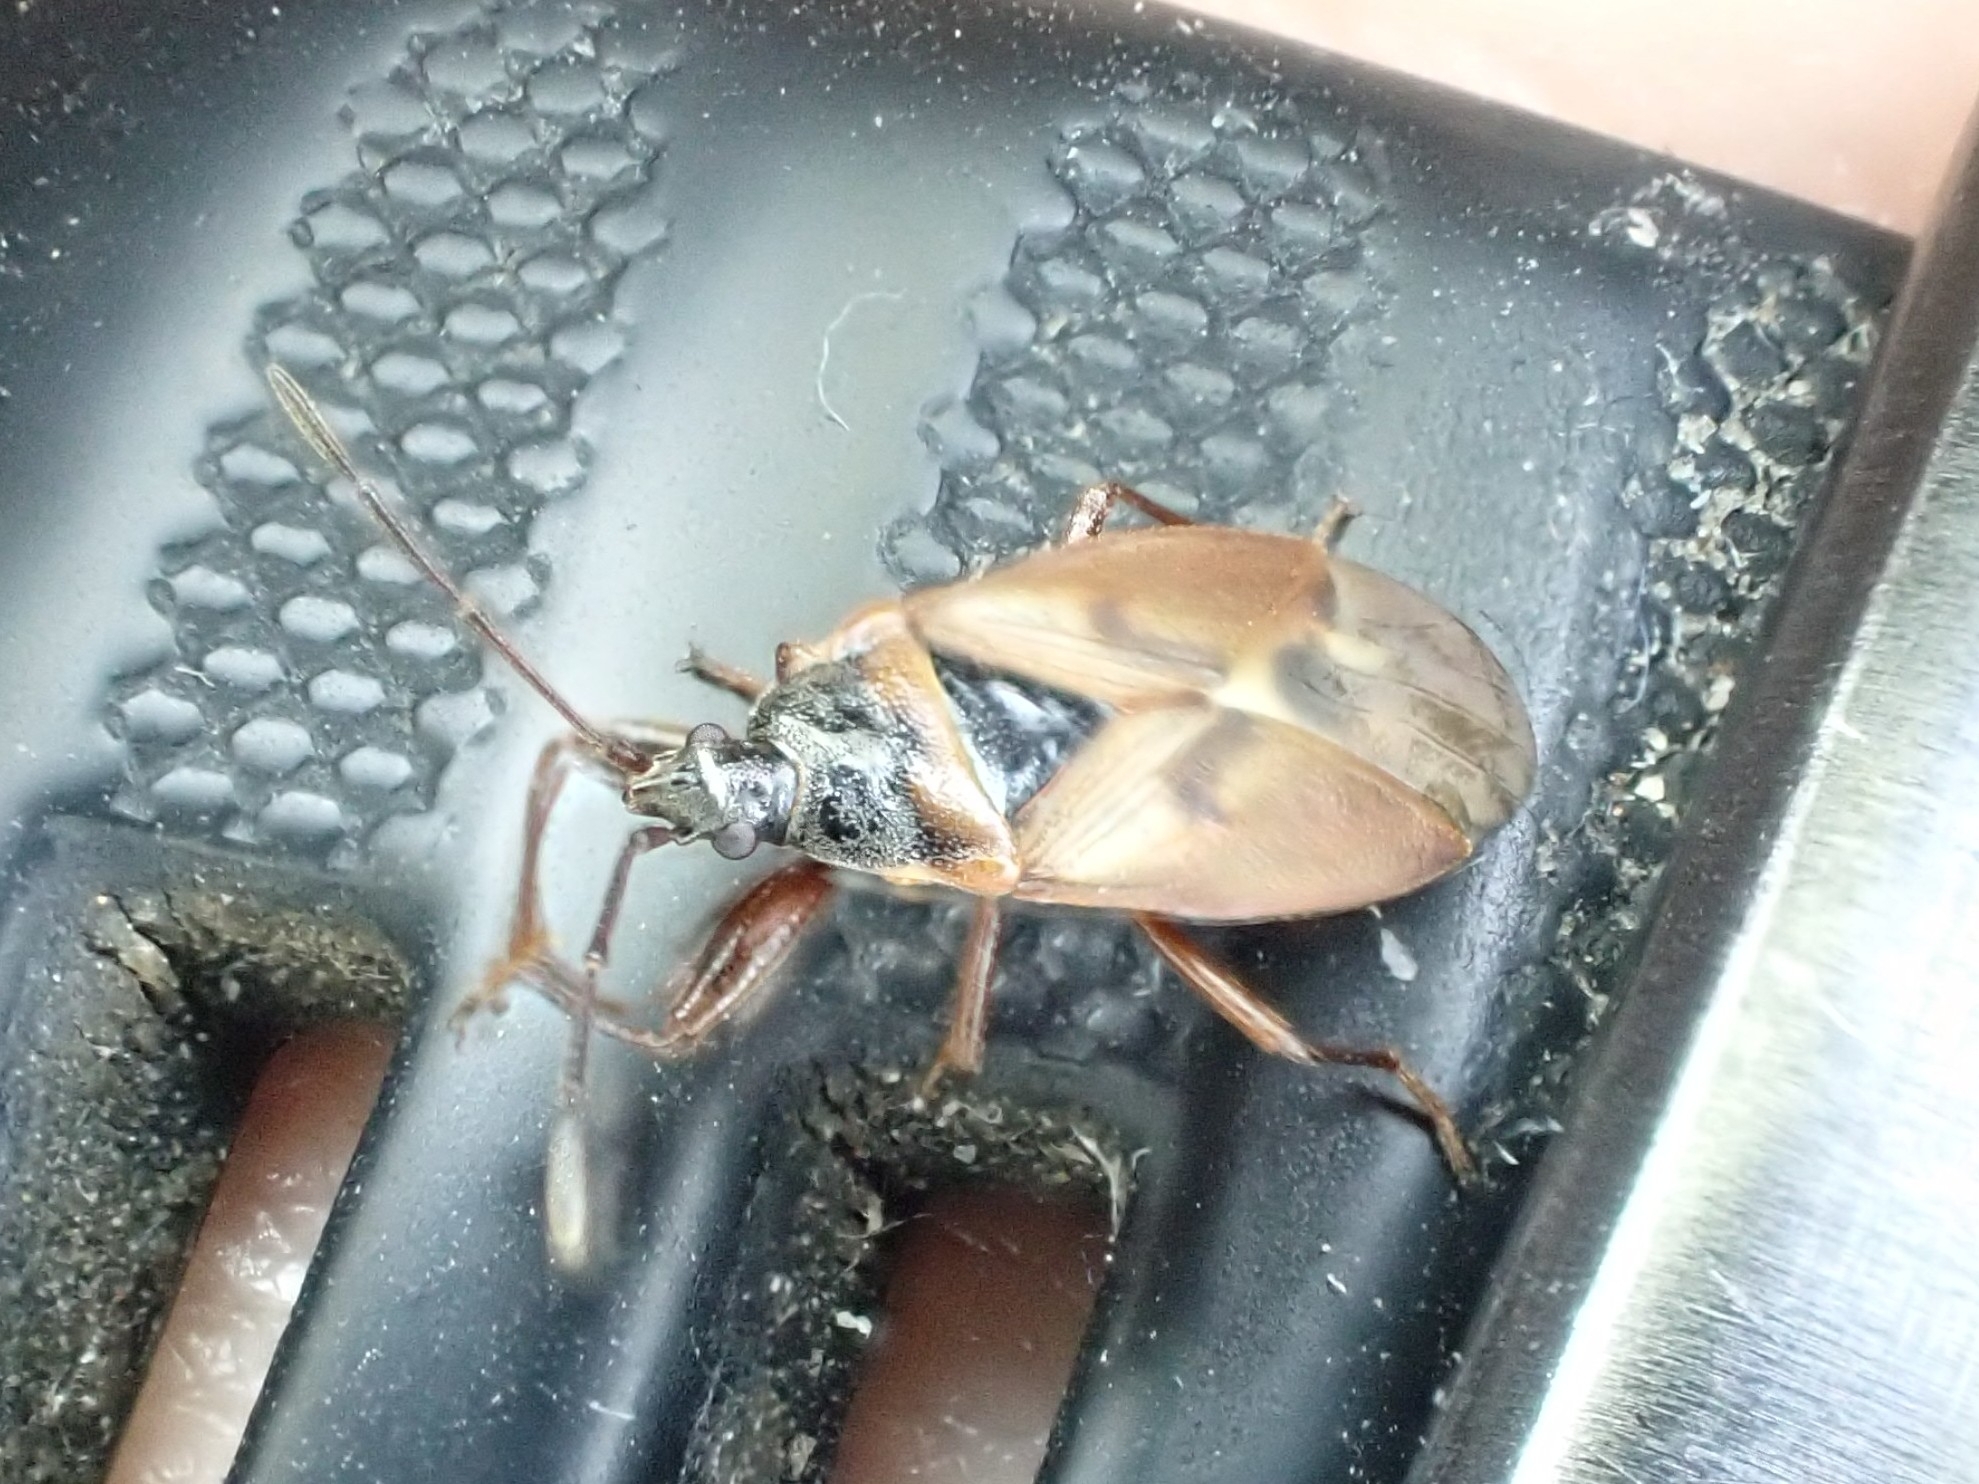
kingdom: Animalia
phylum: Arthropoda
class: Insecta
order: Hemiptera
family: Rhyparochromidae
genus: Gastrodes
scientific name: Gastrodes abietum
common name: Spruce cone bug
